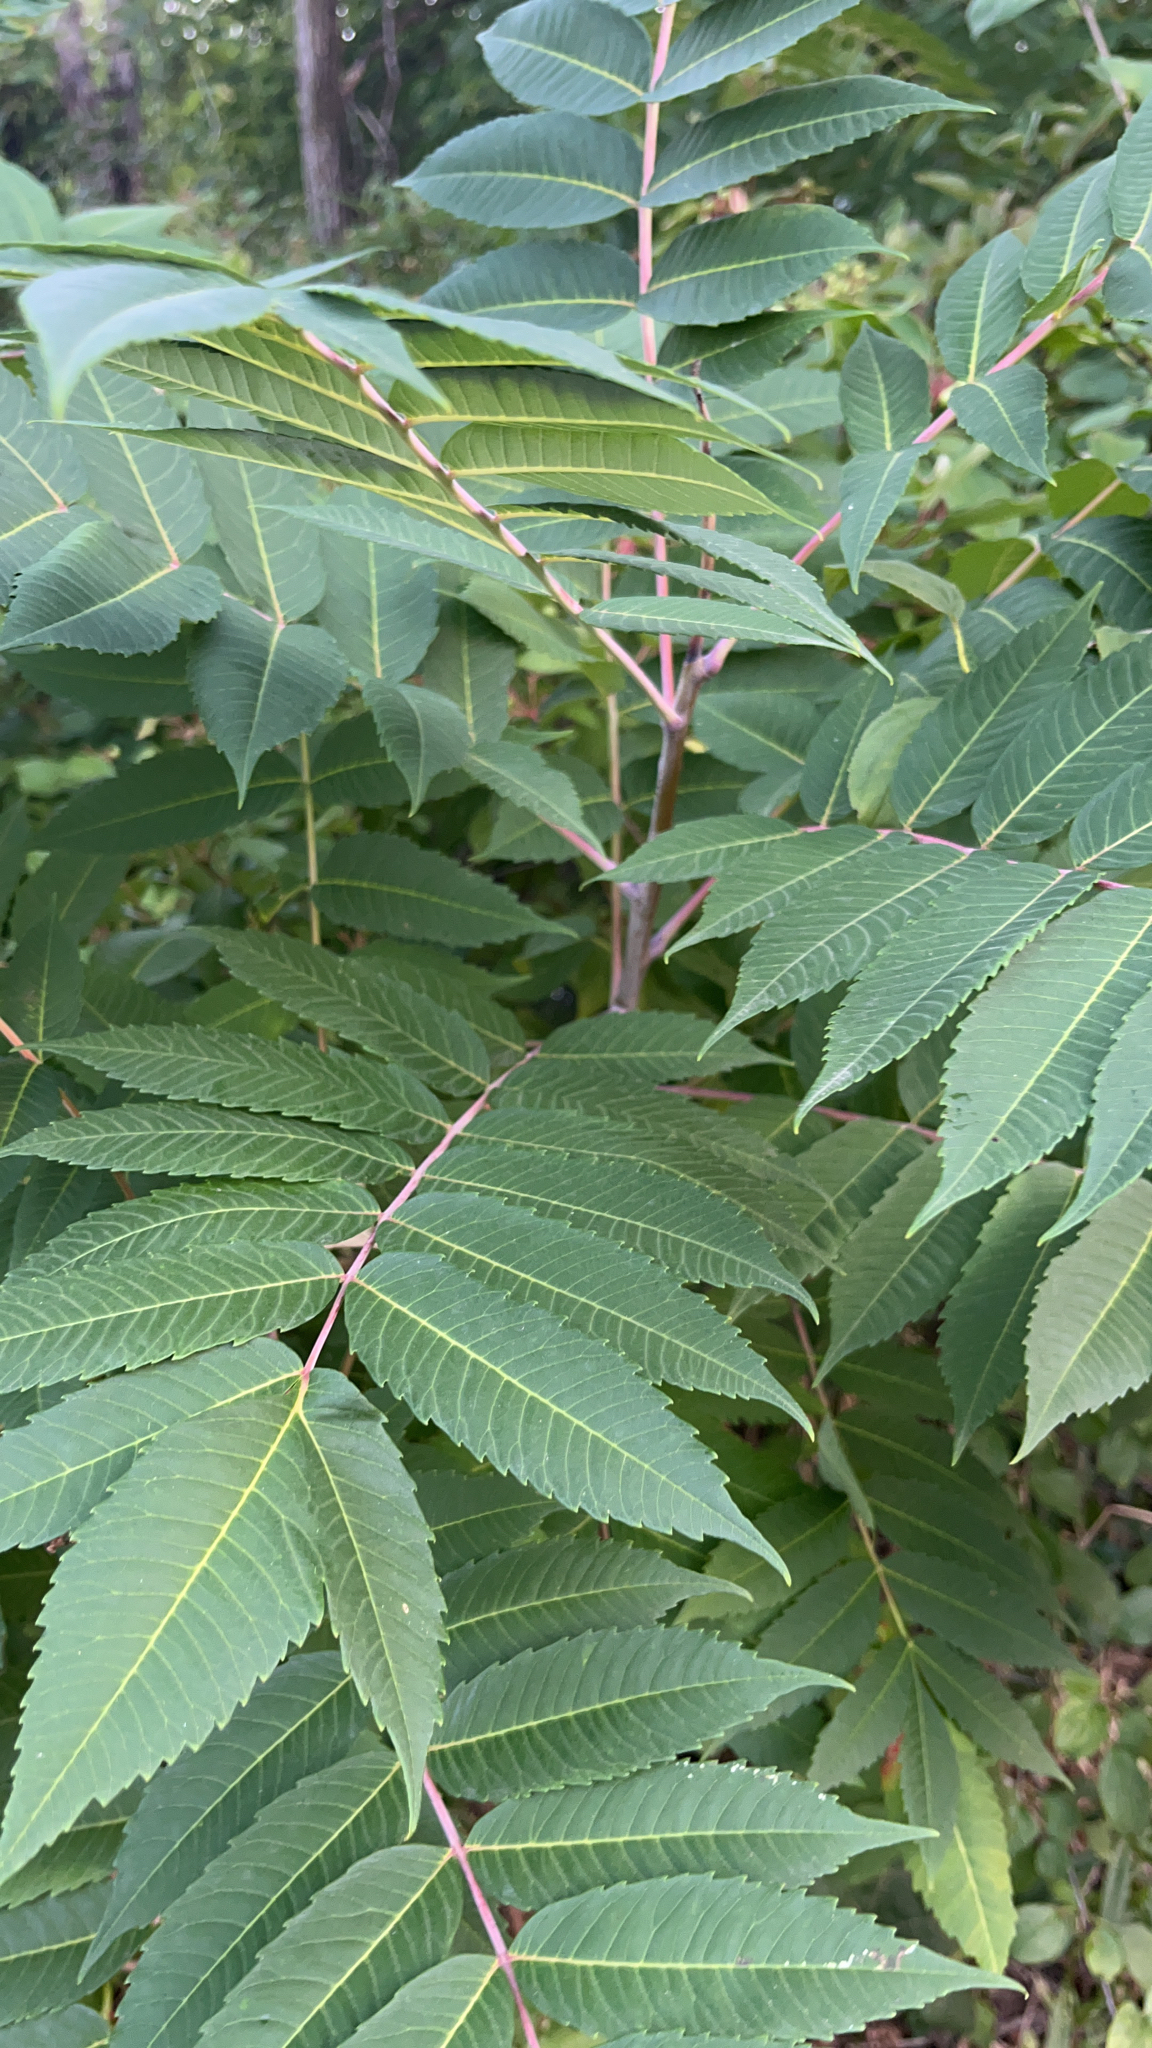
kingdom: Plantae
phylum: Tracheophyta
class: Magnoliopsida
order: Sapindales
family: Anacardiaceae
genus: Rhus
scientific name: Rhus glabra
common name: Scarlet sumac
